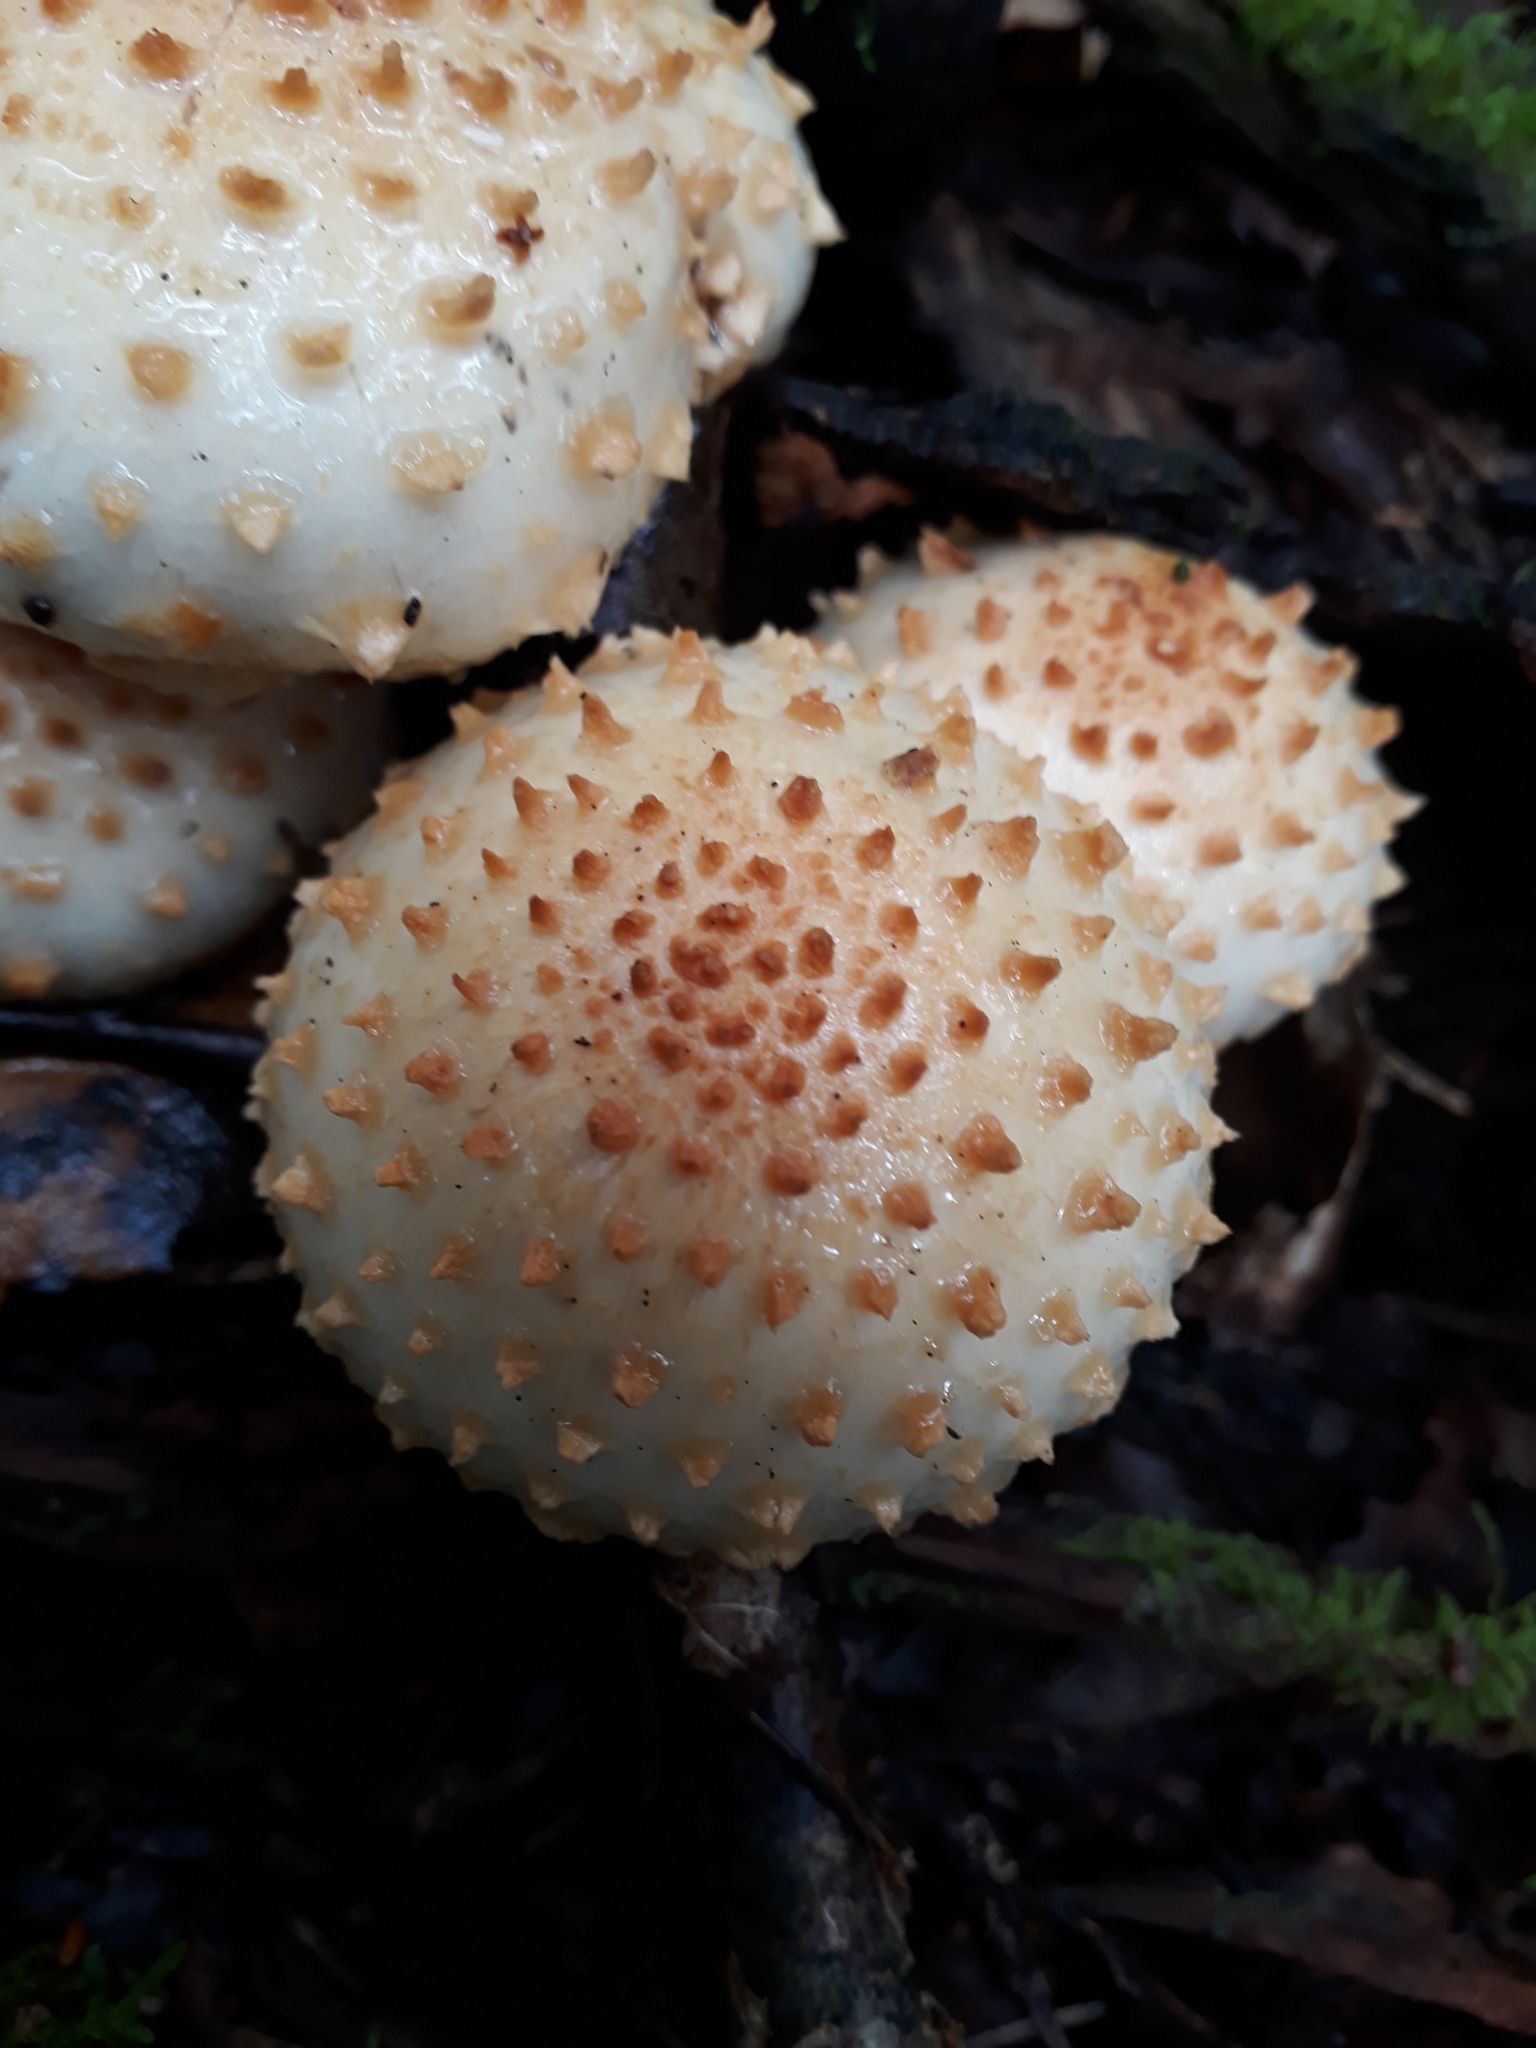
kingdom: Fungi
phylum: Basidiomycota
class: Agaricomycetes
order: Agaricales
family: Strophariaceae
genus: Pholiota
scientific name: Pholiota squarrosoides
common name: Sharp-scaly pholiota
